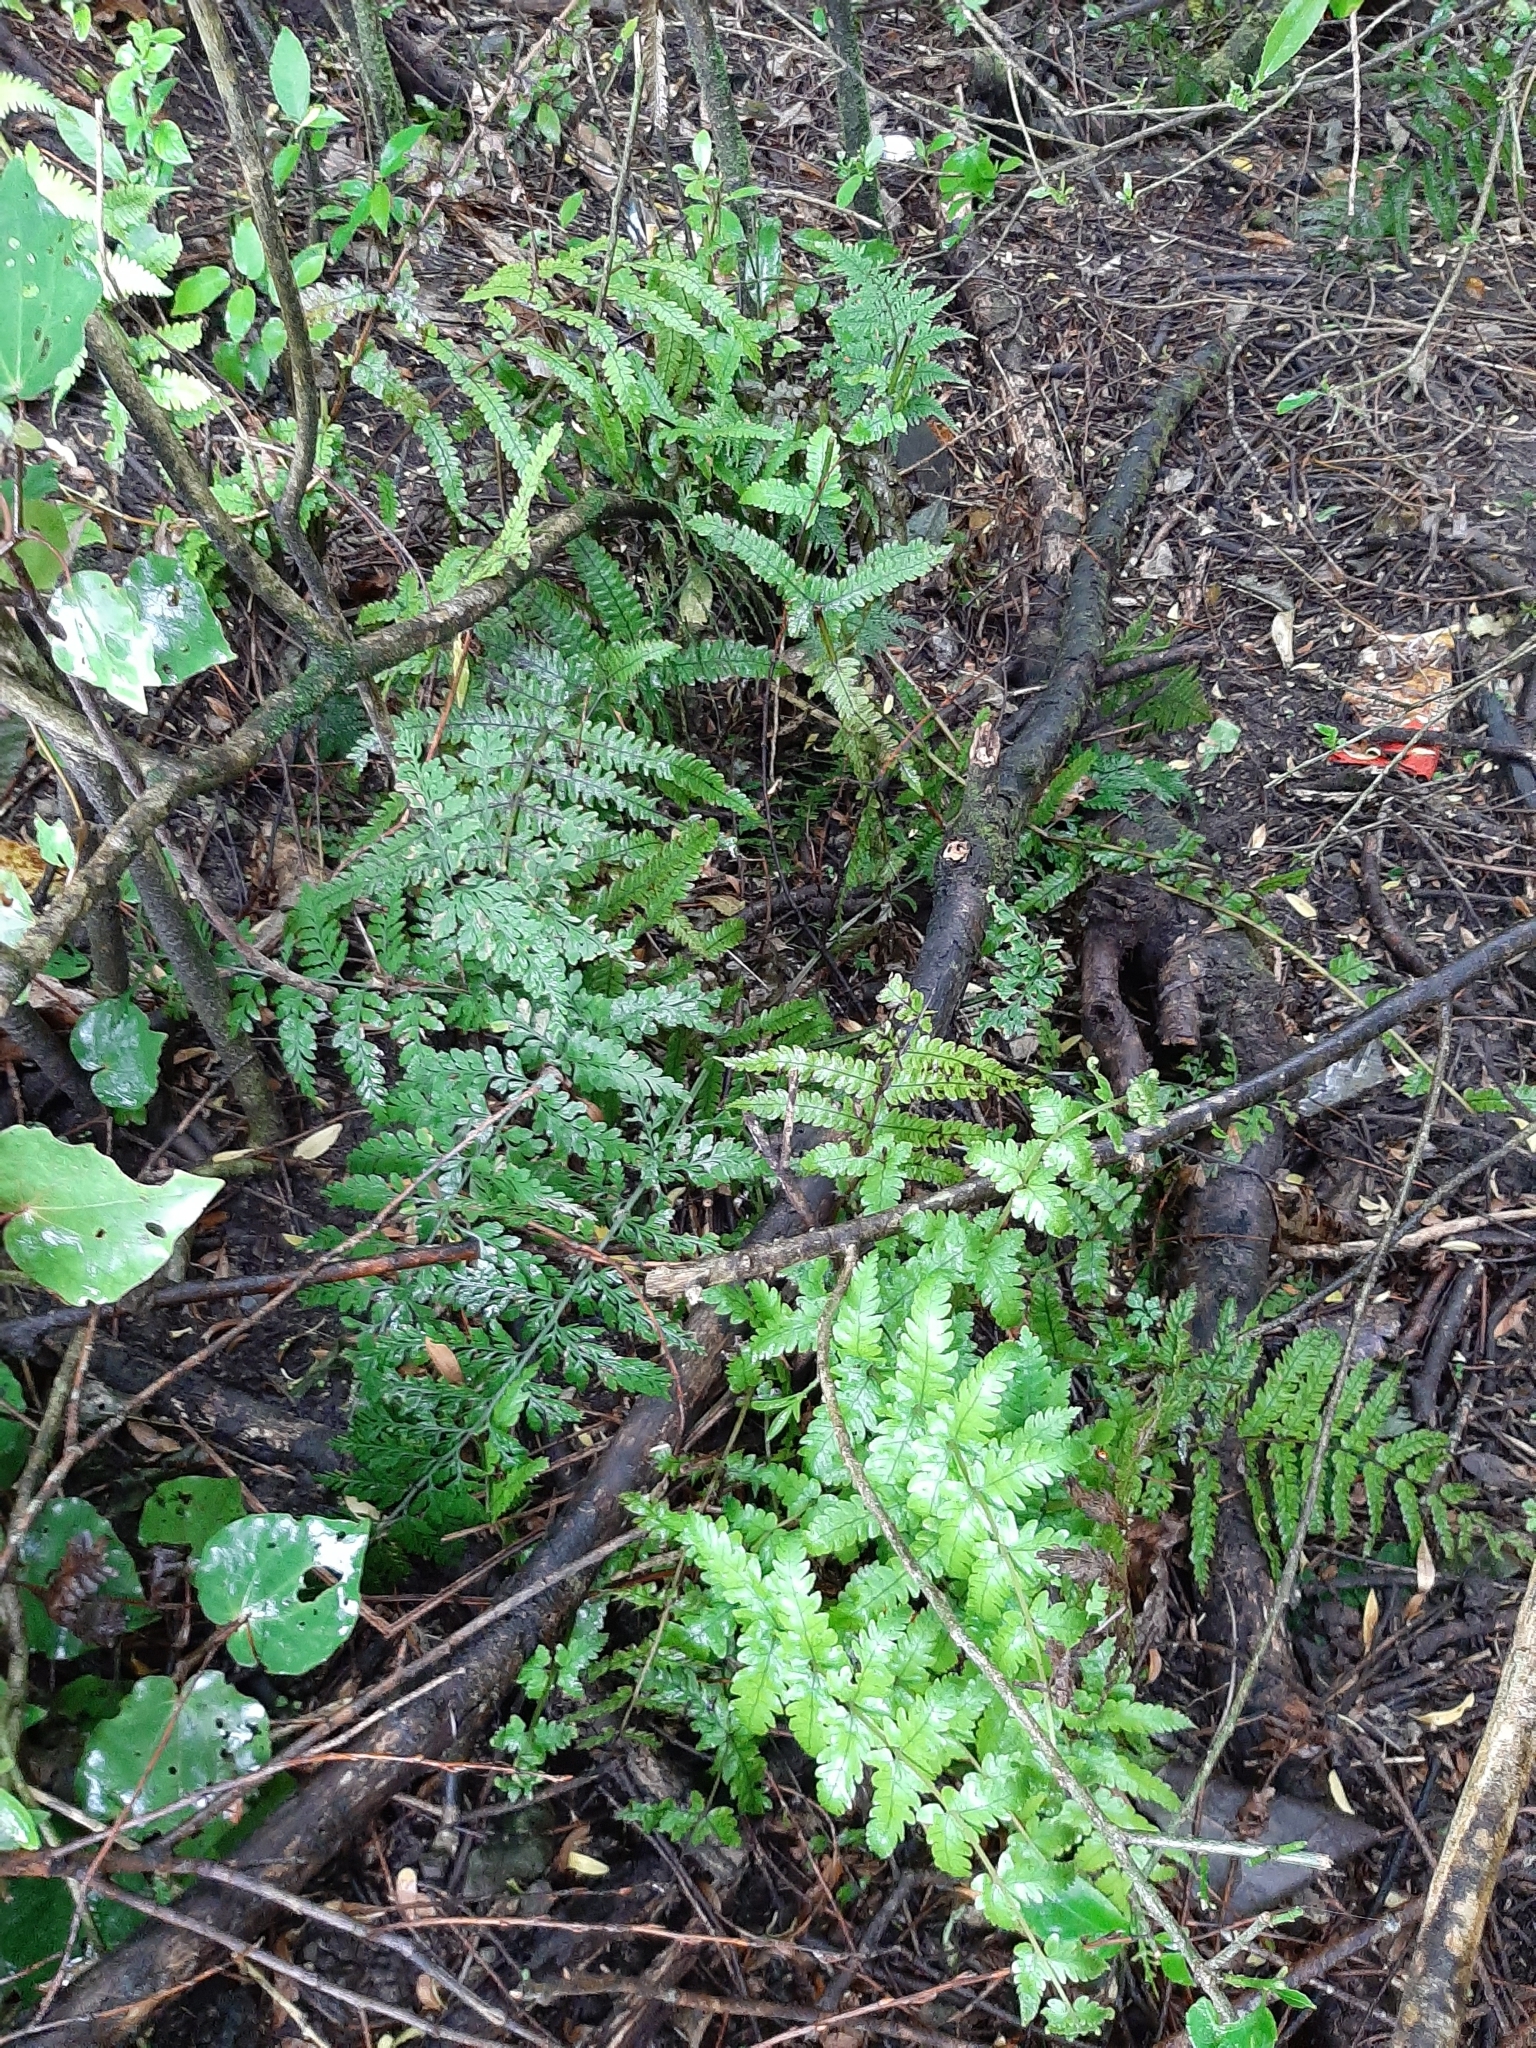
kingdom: Plantae
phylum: Tracheophyta
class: Polypodiopsida
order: Polypodiales
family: Thelypteridaceae
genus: Pakau
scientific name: Pakau pennigera
